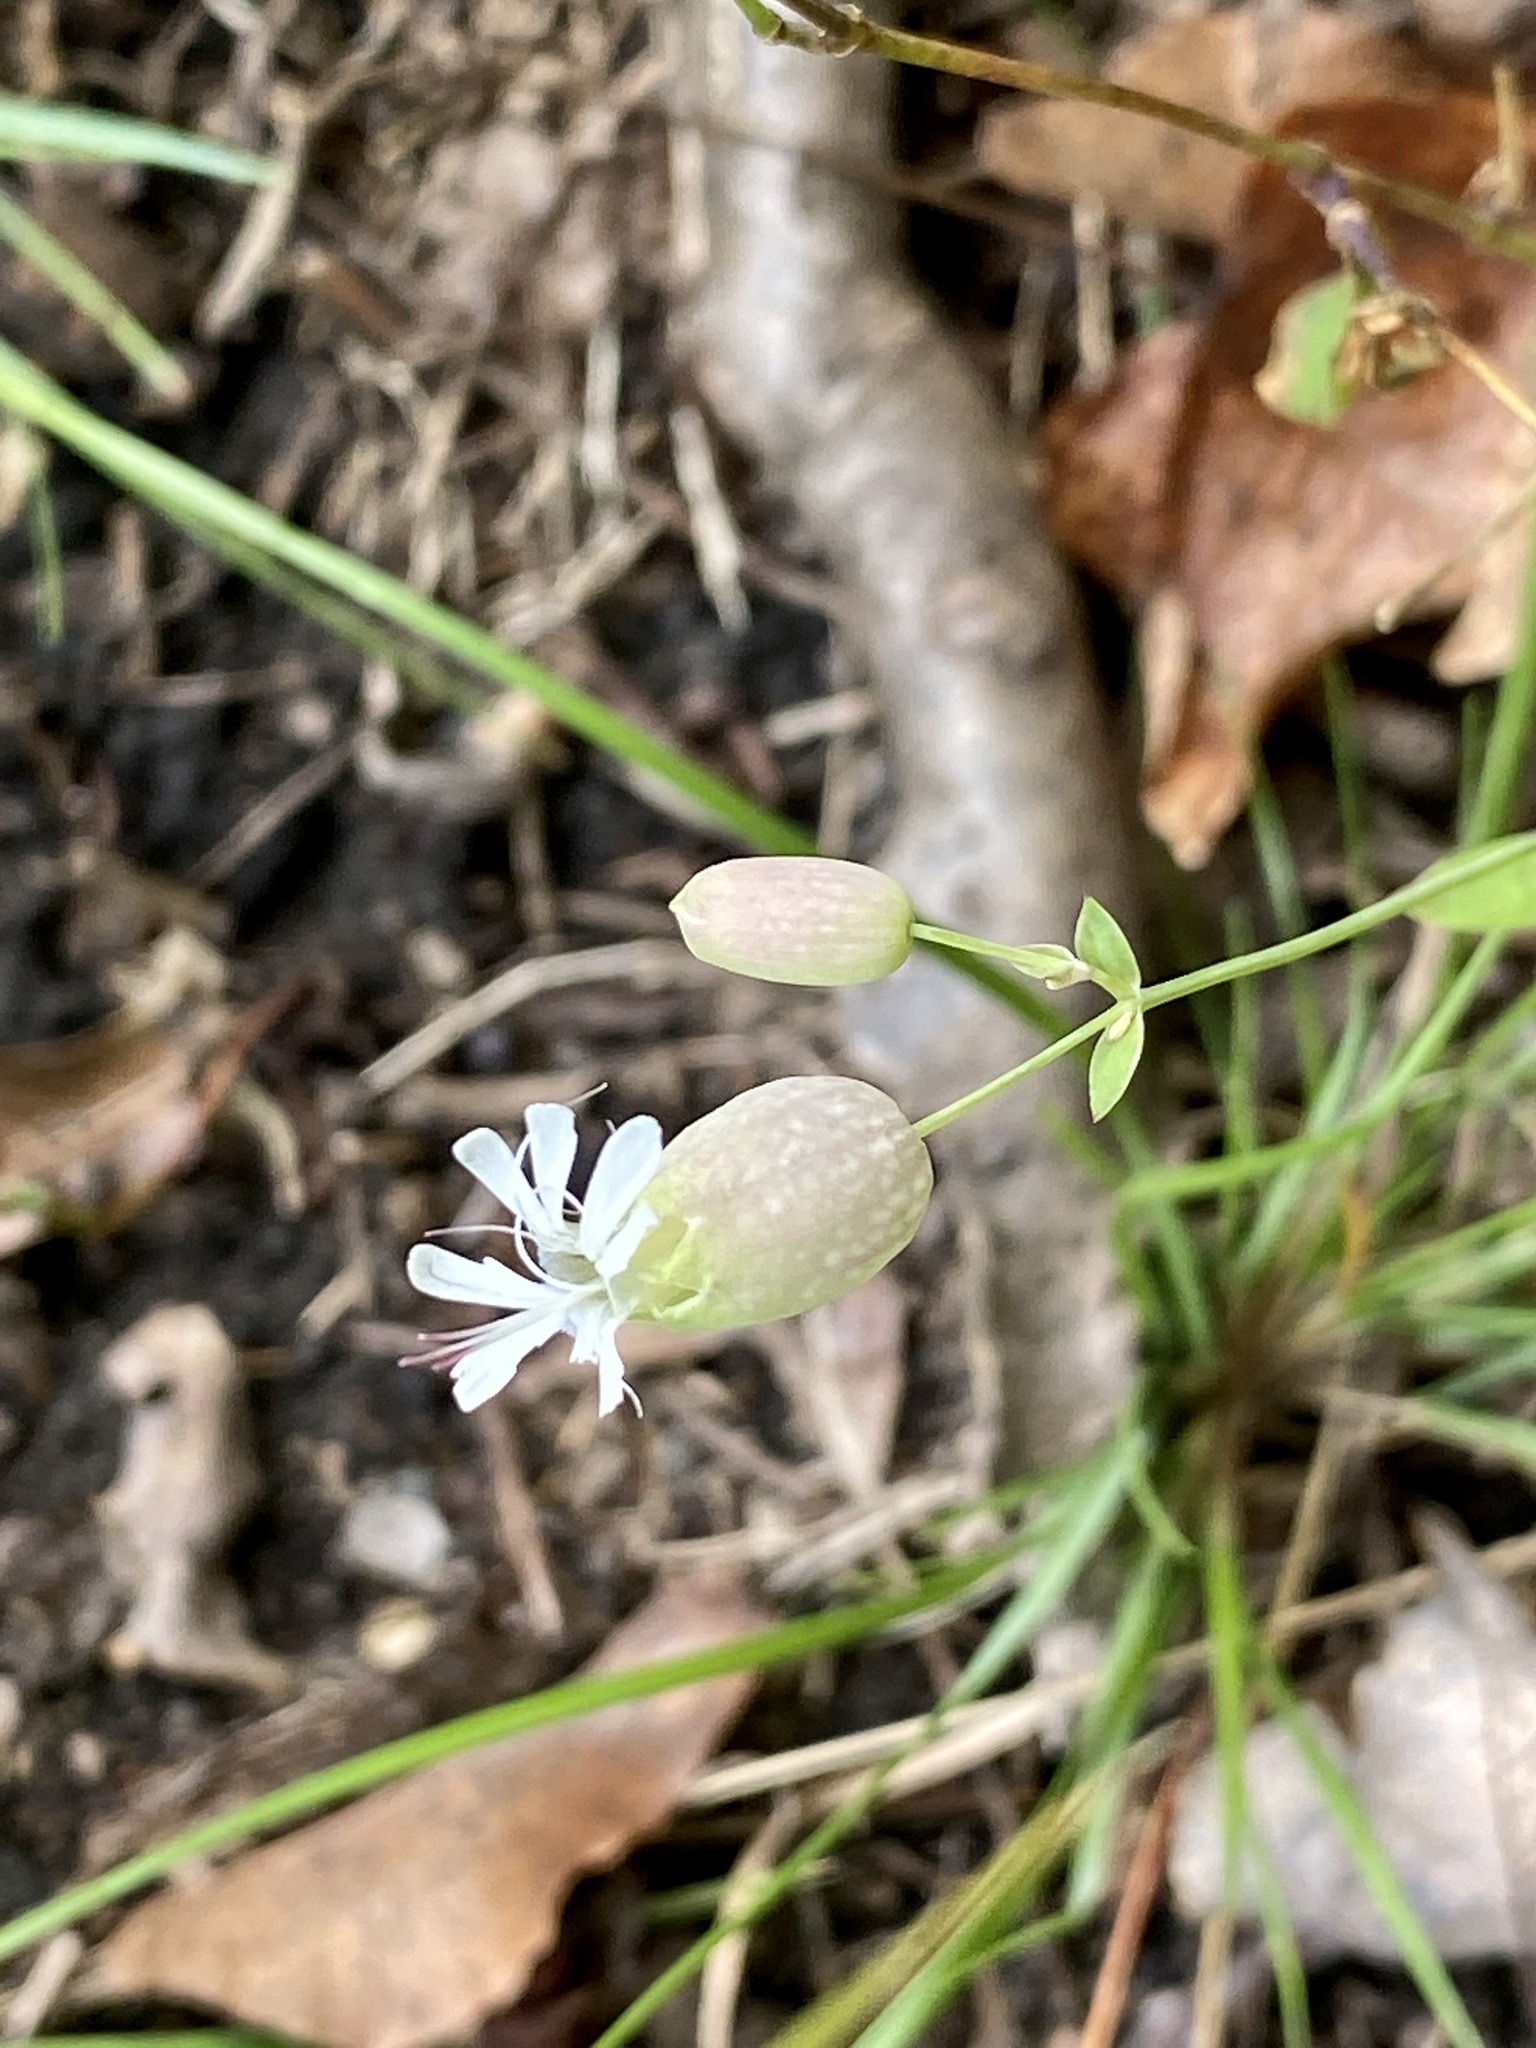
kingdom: Plantae
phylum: Tracheophyta
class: Magnoliopsida
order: Caryophyllales
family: Caryophyllaceae
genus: Silene
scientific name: Silene vulgaris
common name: Bladder campion
